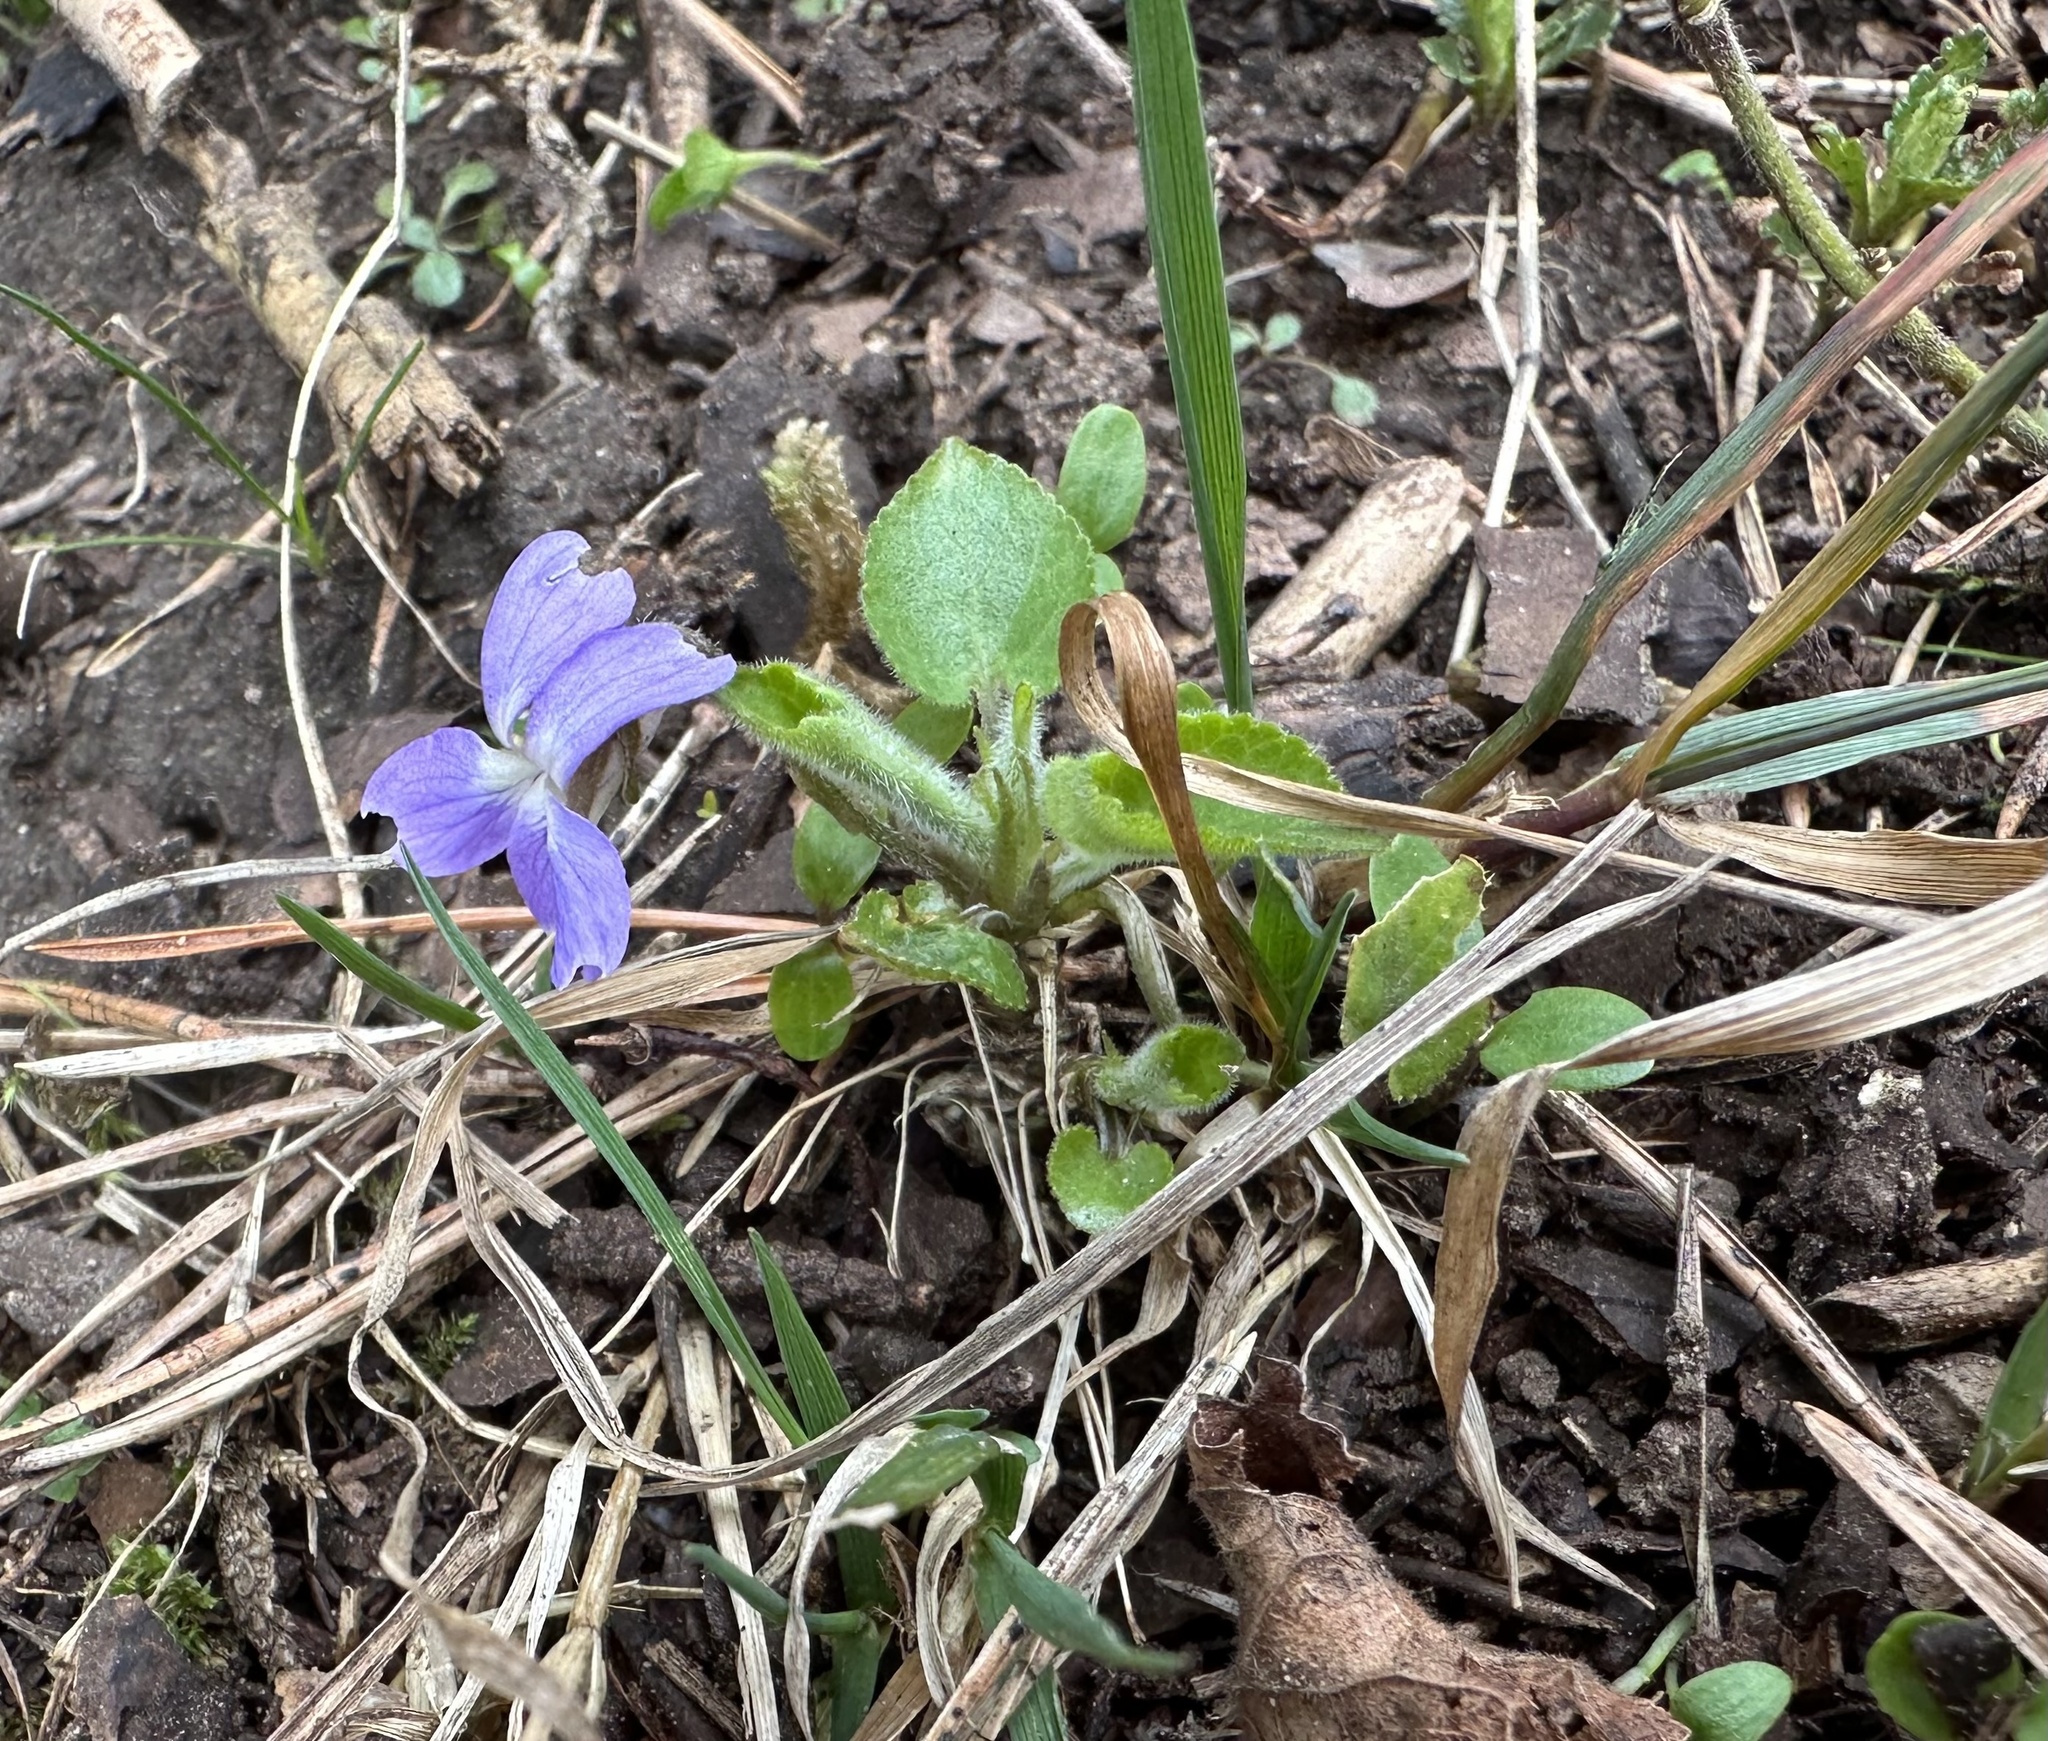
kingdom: Plantae
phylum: Tracheophyta
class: Magnoliopsida
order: Malpighiales
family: Violaceae
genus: Viola
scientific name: Viola collina
